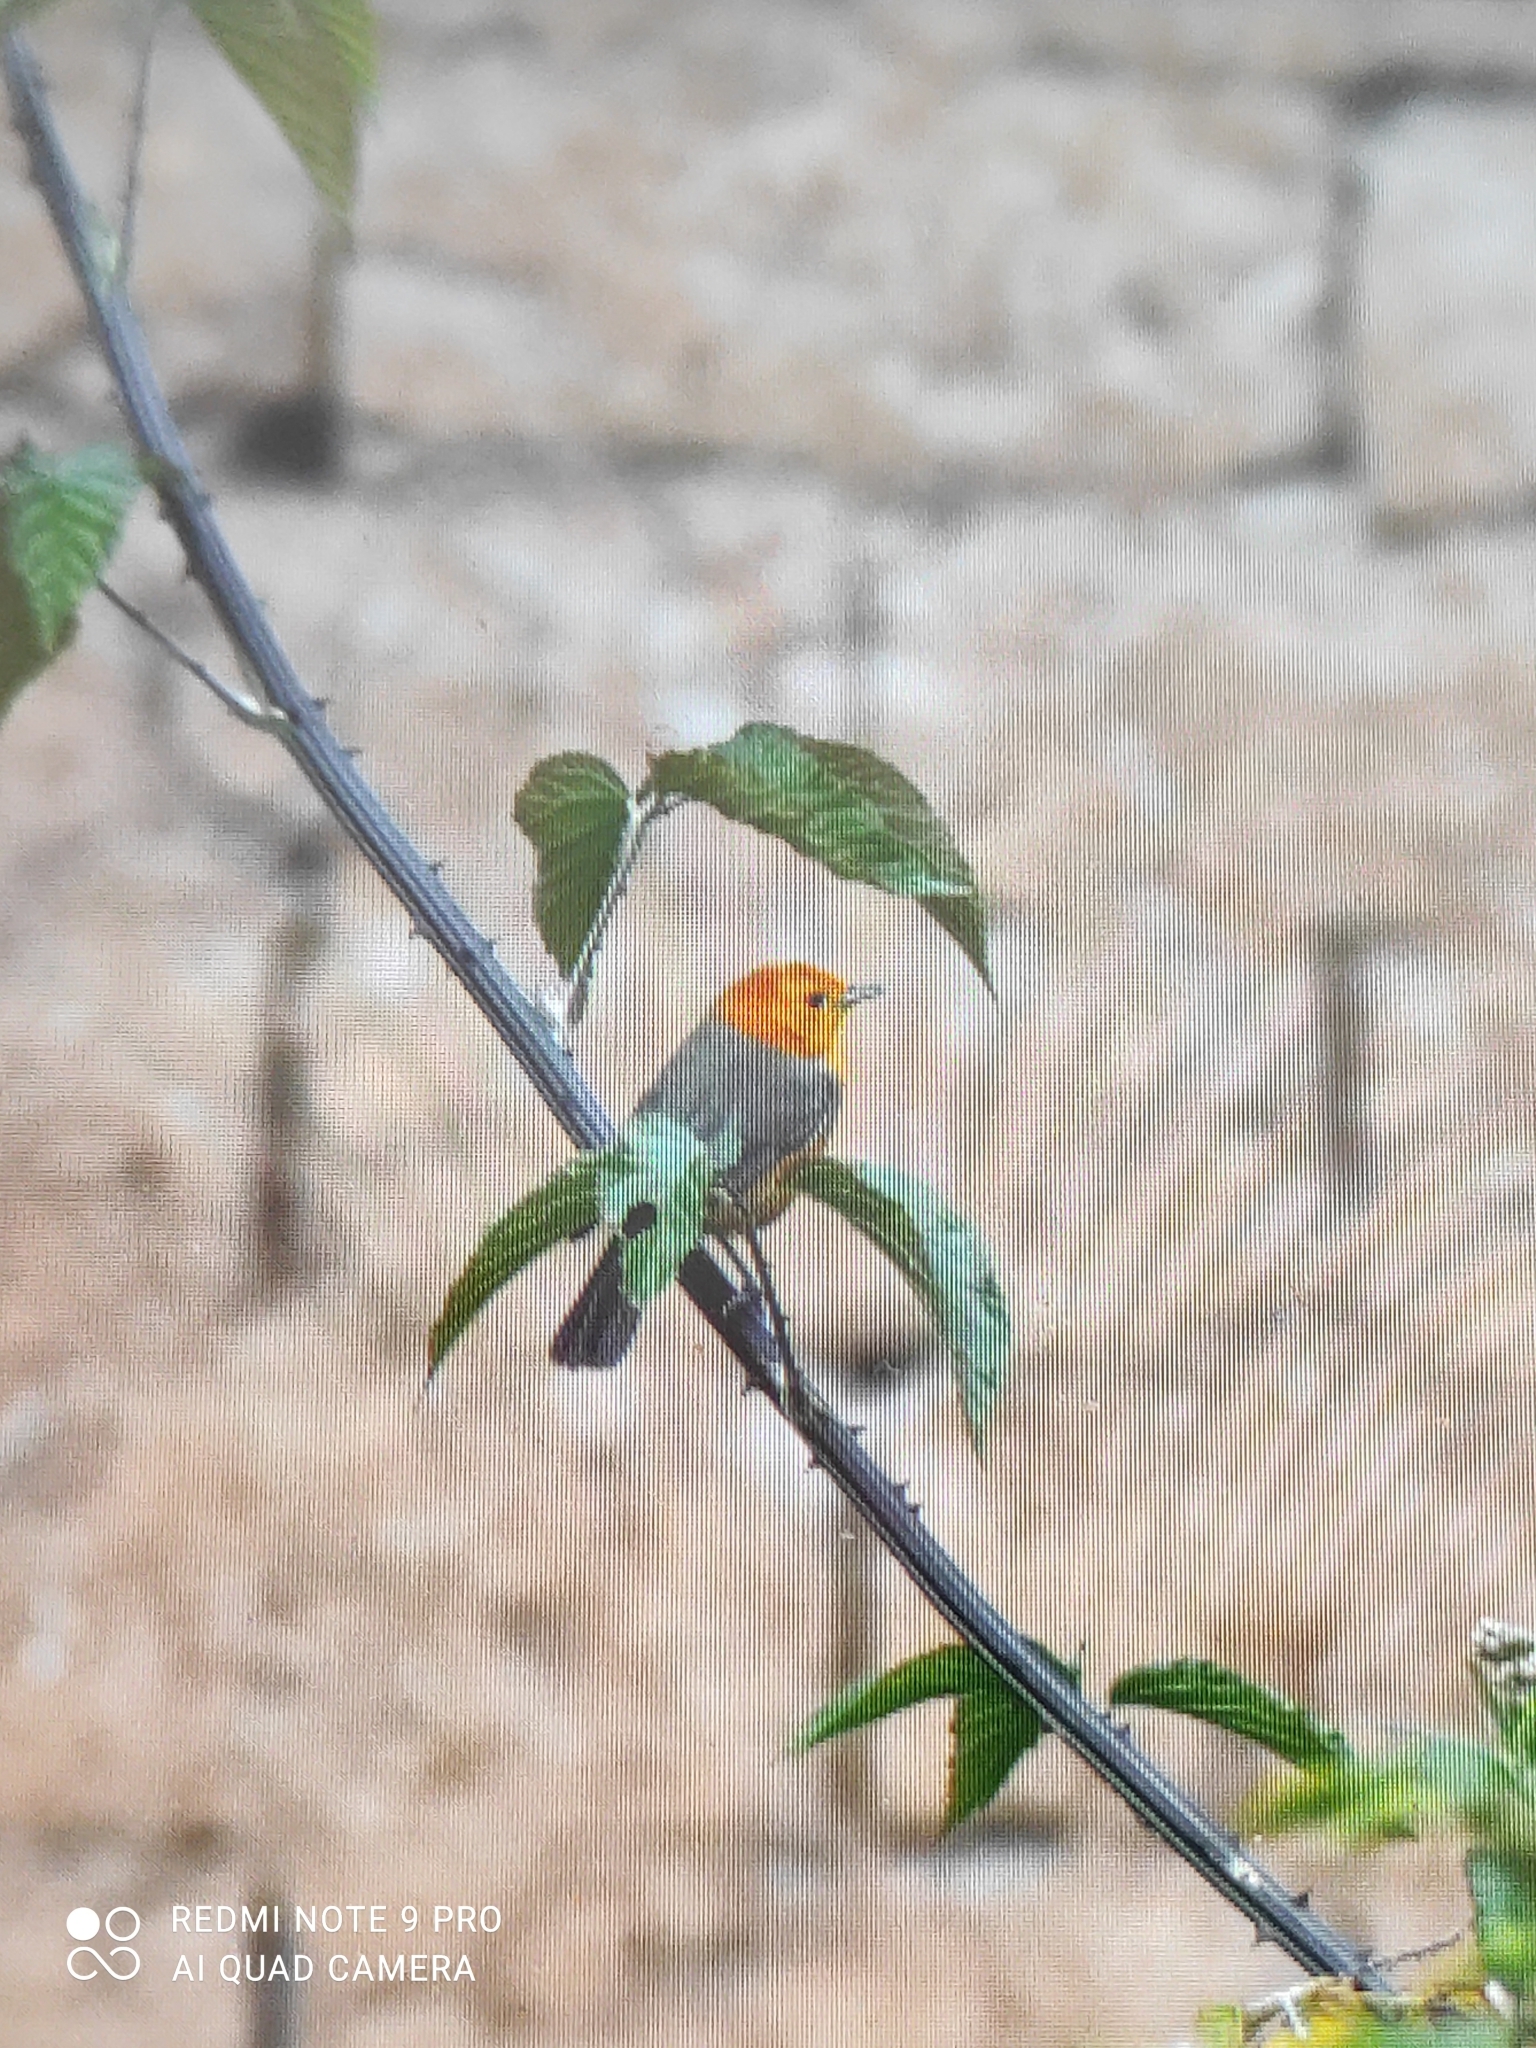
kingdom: Animalia
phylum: Chordata
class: Aves
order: Passeriformes
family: Thraupidae
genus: Thlypopsis
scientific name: Thlypopsis ornata
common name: Rufous-chested tanager
